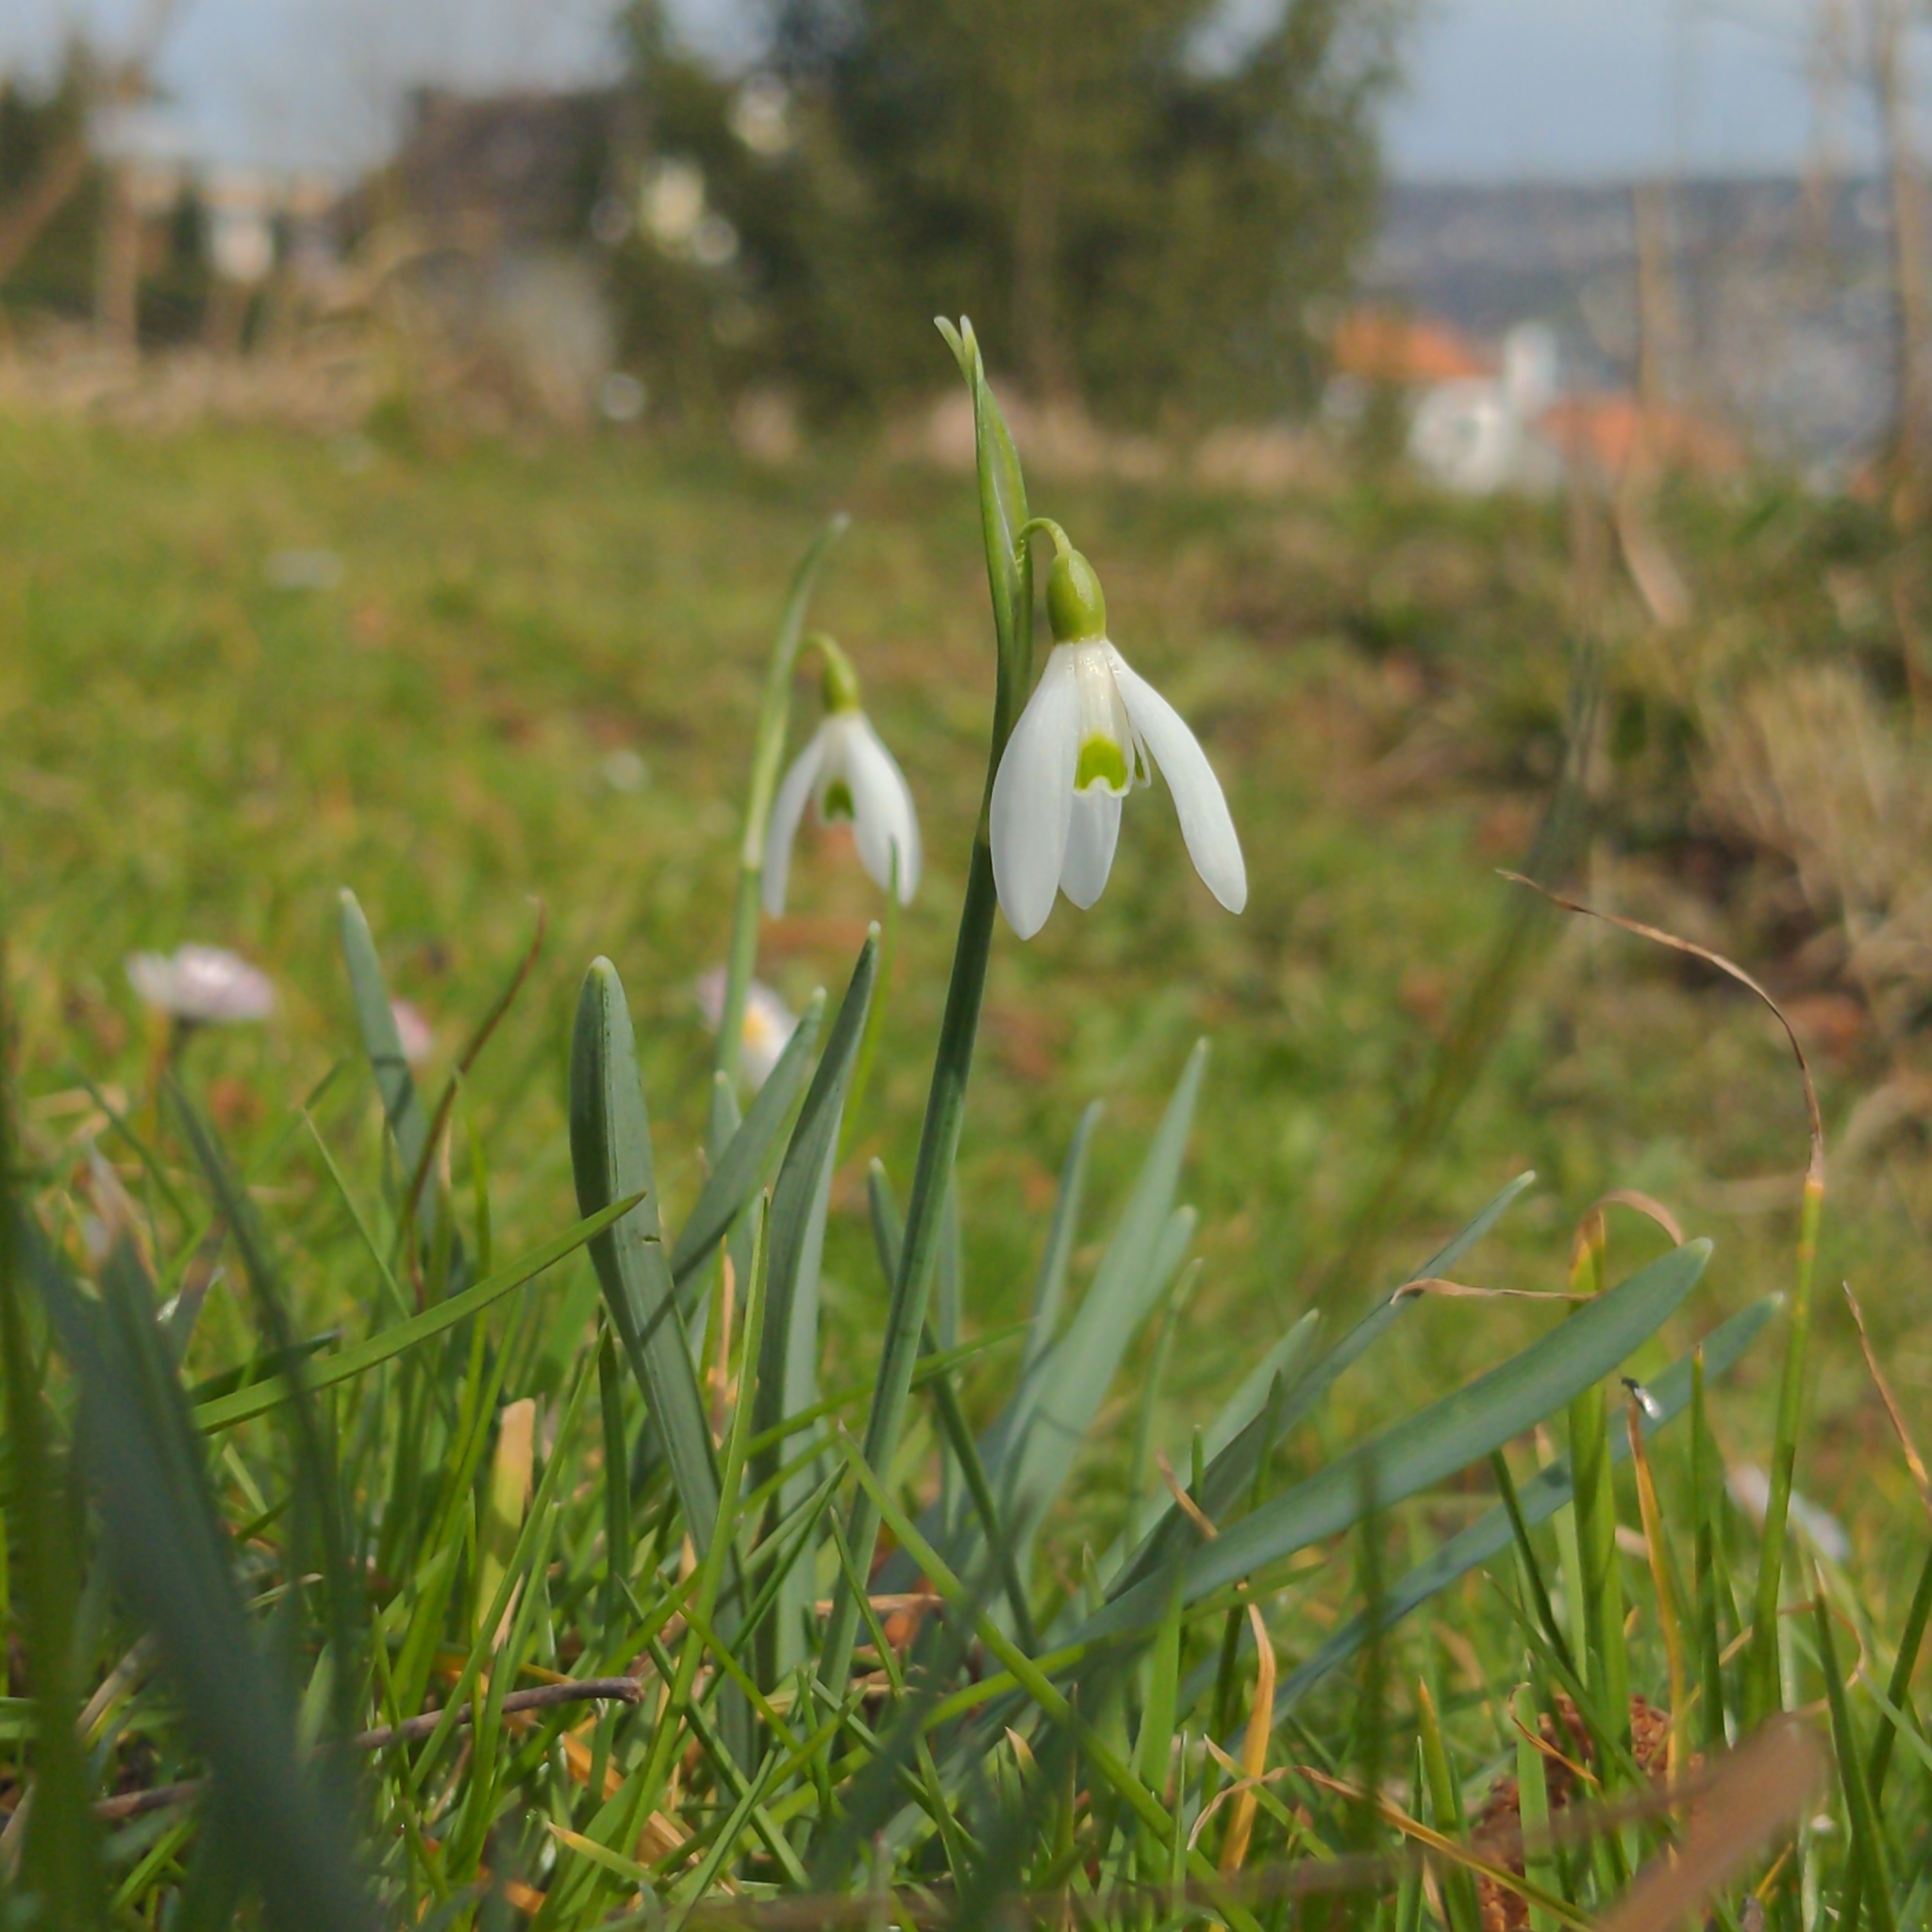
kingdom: Plantae
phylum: Tracheophyta
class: Liliopsida
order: Asparagales
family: Amaryllidaceae
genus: Galanthus
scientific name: Galanthus nivalis
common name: Snowdrop
